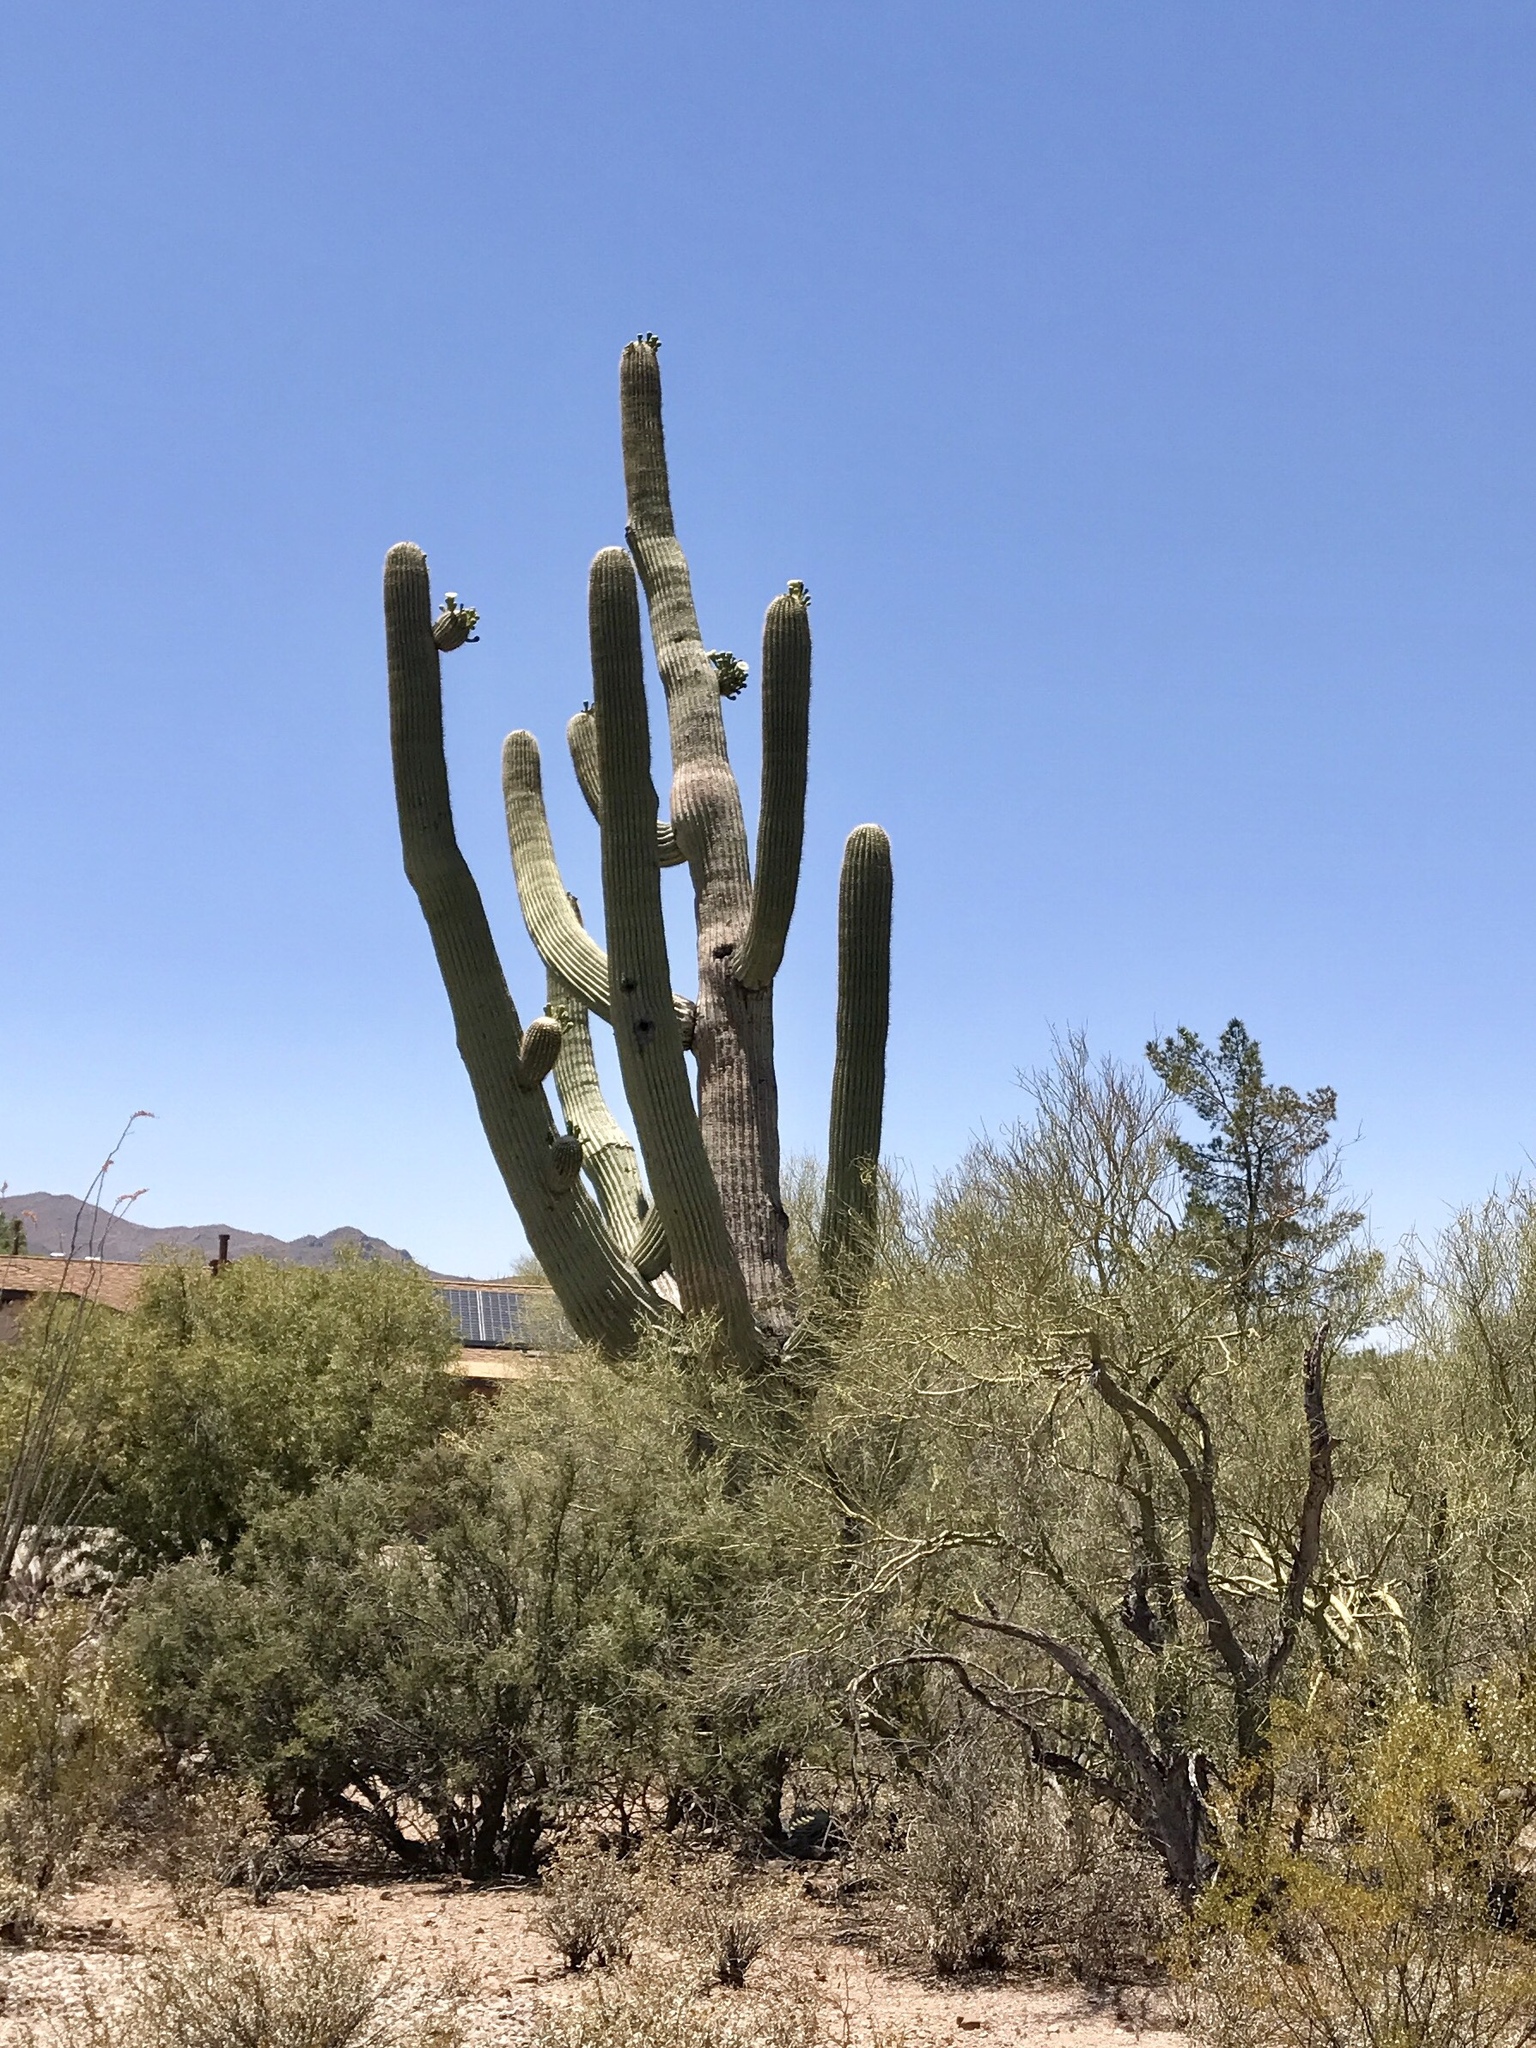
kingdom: Plantae
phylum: Tracheophyta
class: Magnoliopsida
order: Caryophyllales
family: Cactaceae
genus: Carnegiea
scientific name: Carnegiea gigantea
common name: Saguaro
